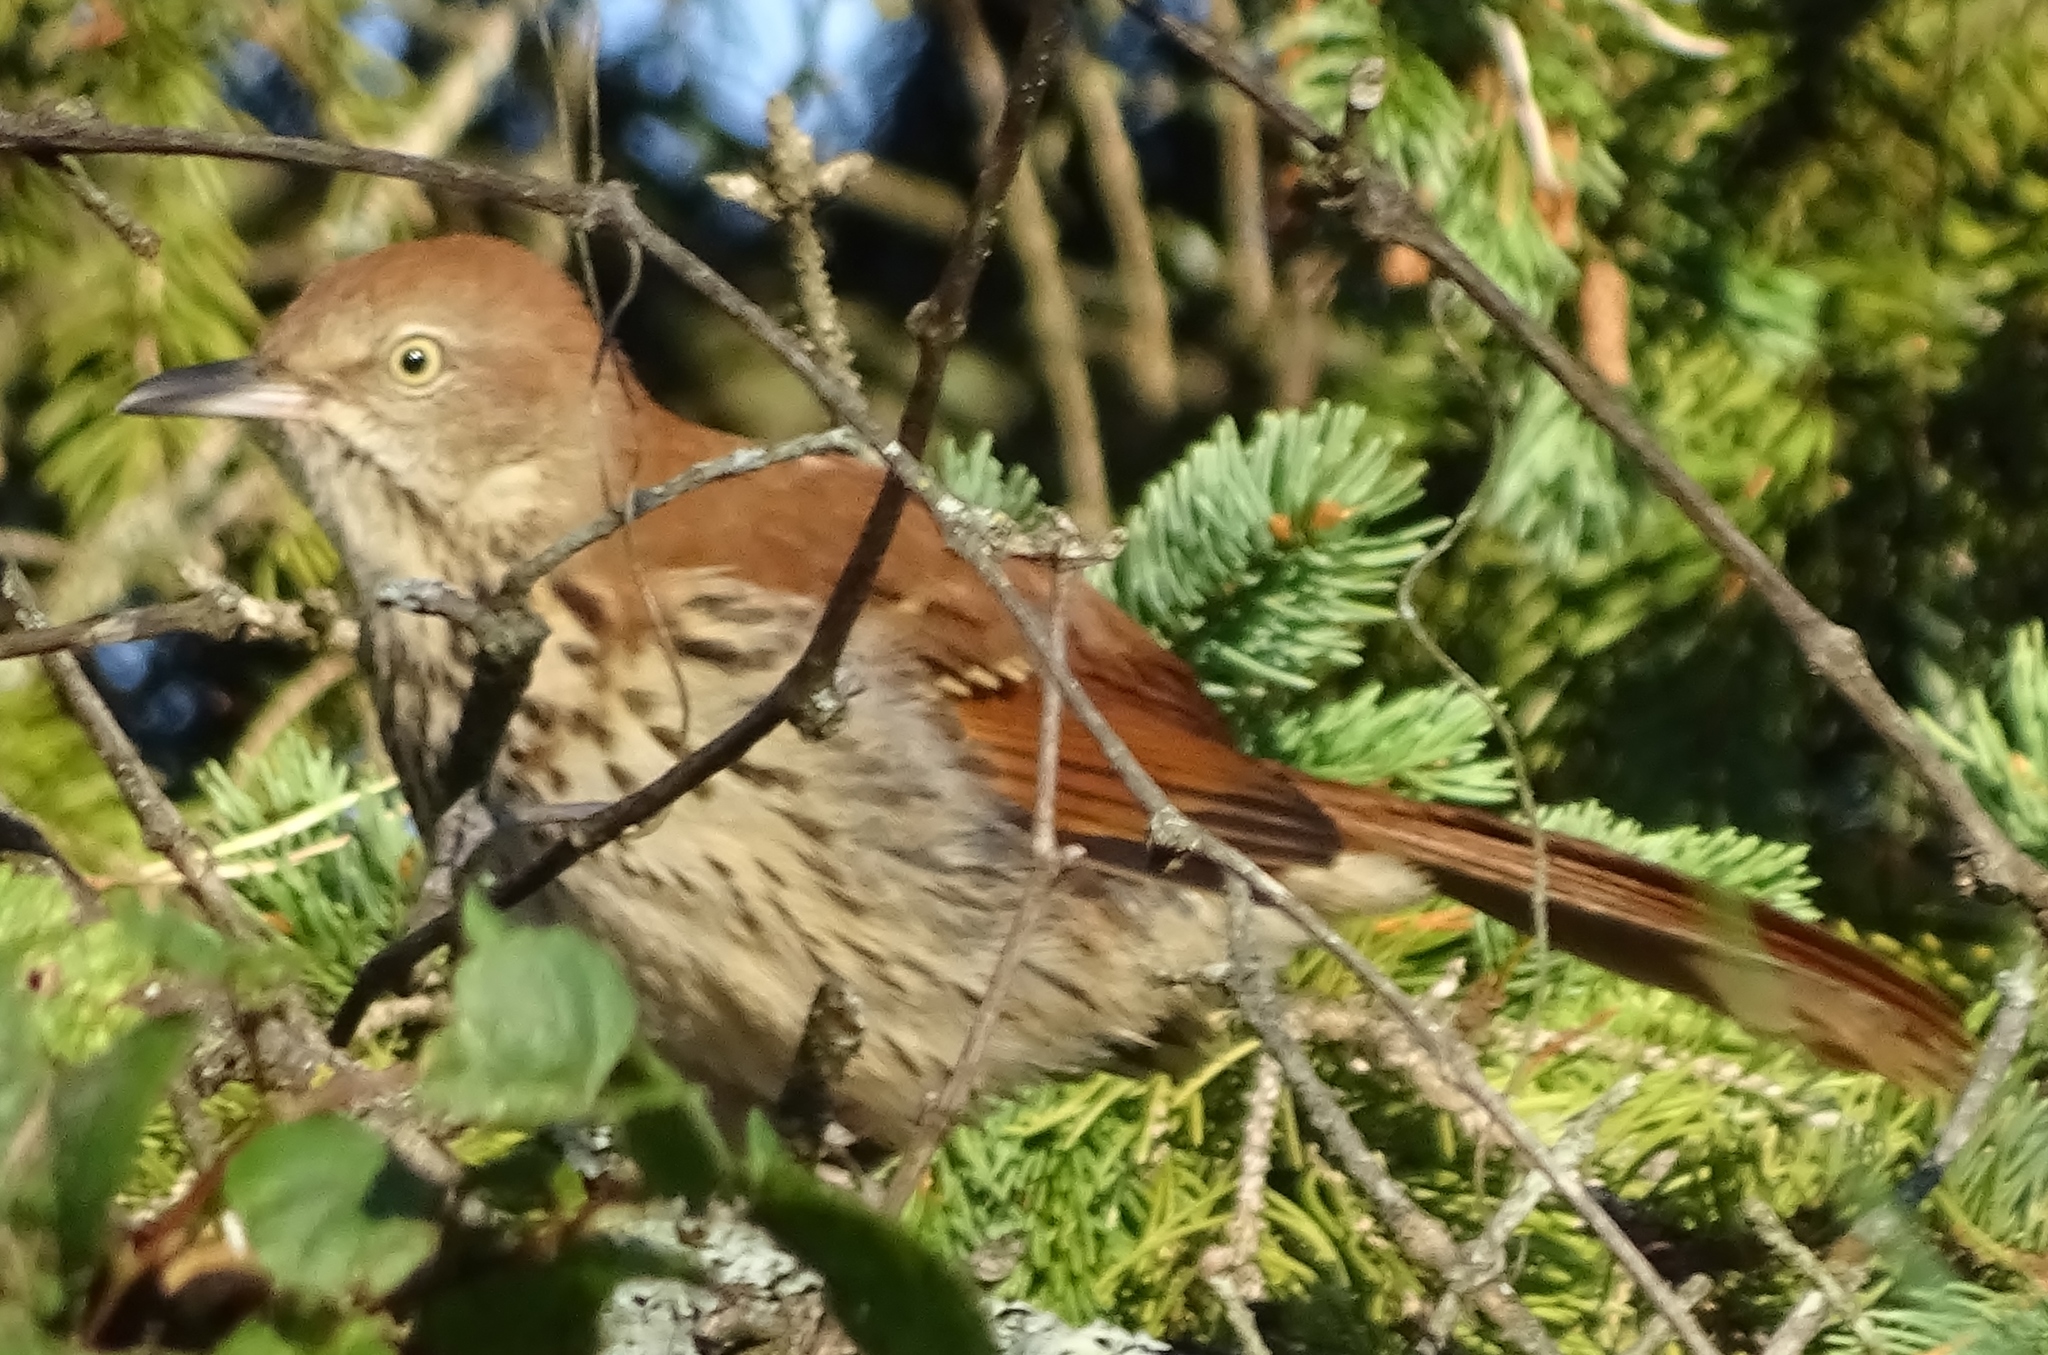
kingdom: Animalia
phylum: Chordata
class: Aves
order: Passeriformes
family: Mimidae
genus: Toxostoma
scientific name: Toxostoma rufum
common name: Brown thrasher
